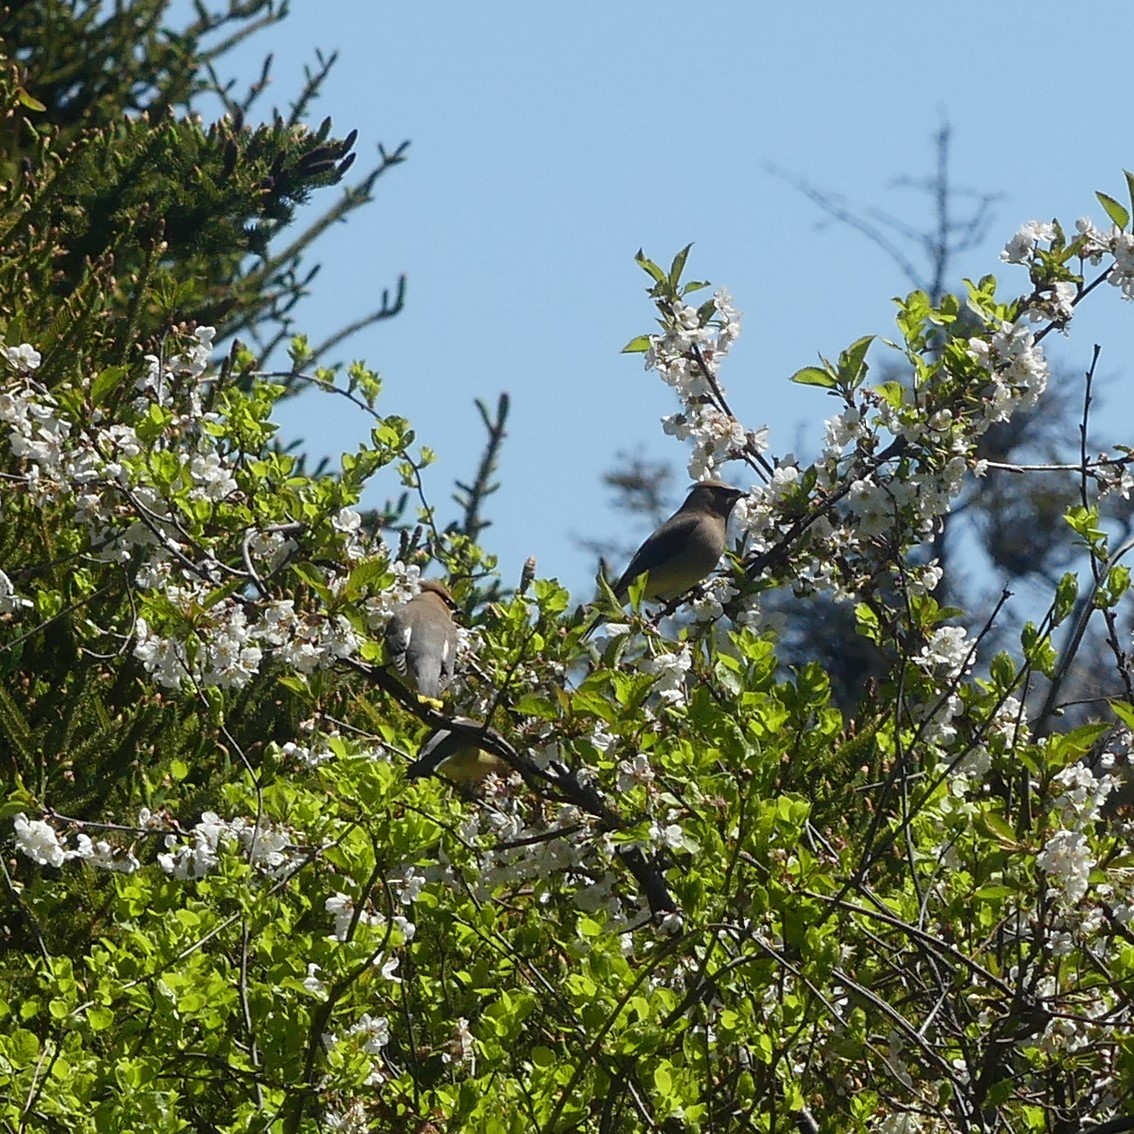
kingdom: Animalia
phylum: Chordata
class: Aves
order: Passeriformes
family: Bombycillidae
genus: Bombycilla
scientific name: Bombycilla cedrorum
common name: Cedar waxwing
